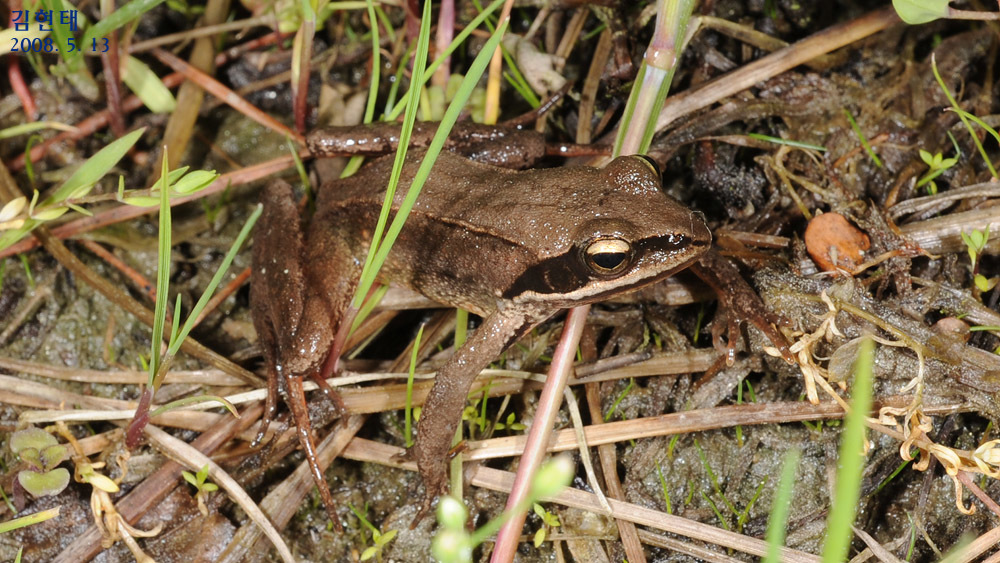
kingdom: Animalia
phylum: Chordata
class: Amphibia
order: Anura
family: Ranidae
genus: Rana
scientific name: Rana coreana
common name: Korean brown frog
